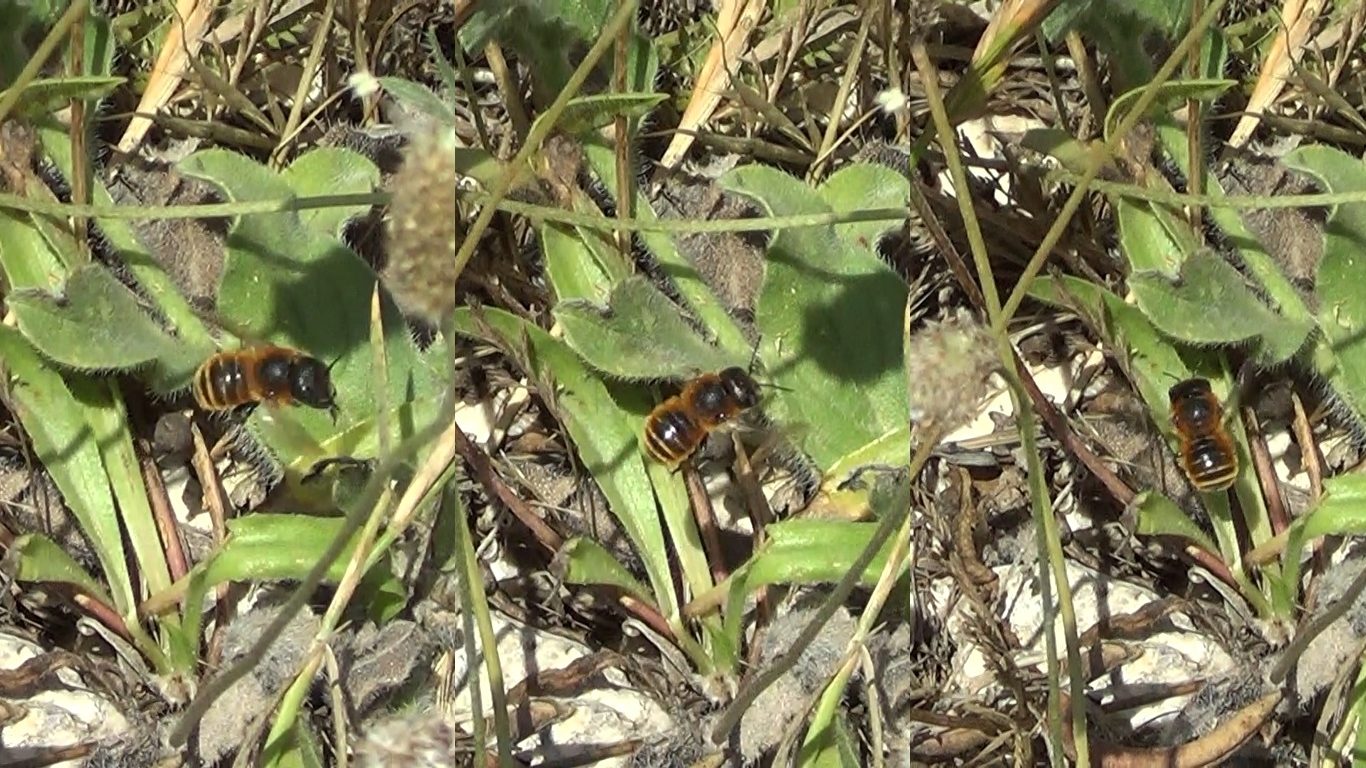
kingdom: Animalia
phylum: Arthropoda
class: Insecta
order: Hymenoptera
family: Megachilidae
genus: Osmia
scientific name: Osmia aurulenta
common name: Gold-fringed mason bee
